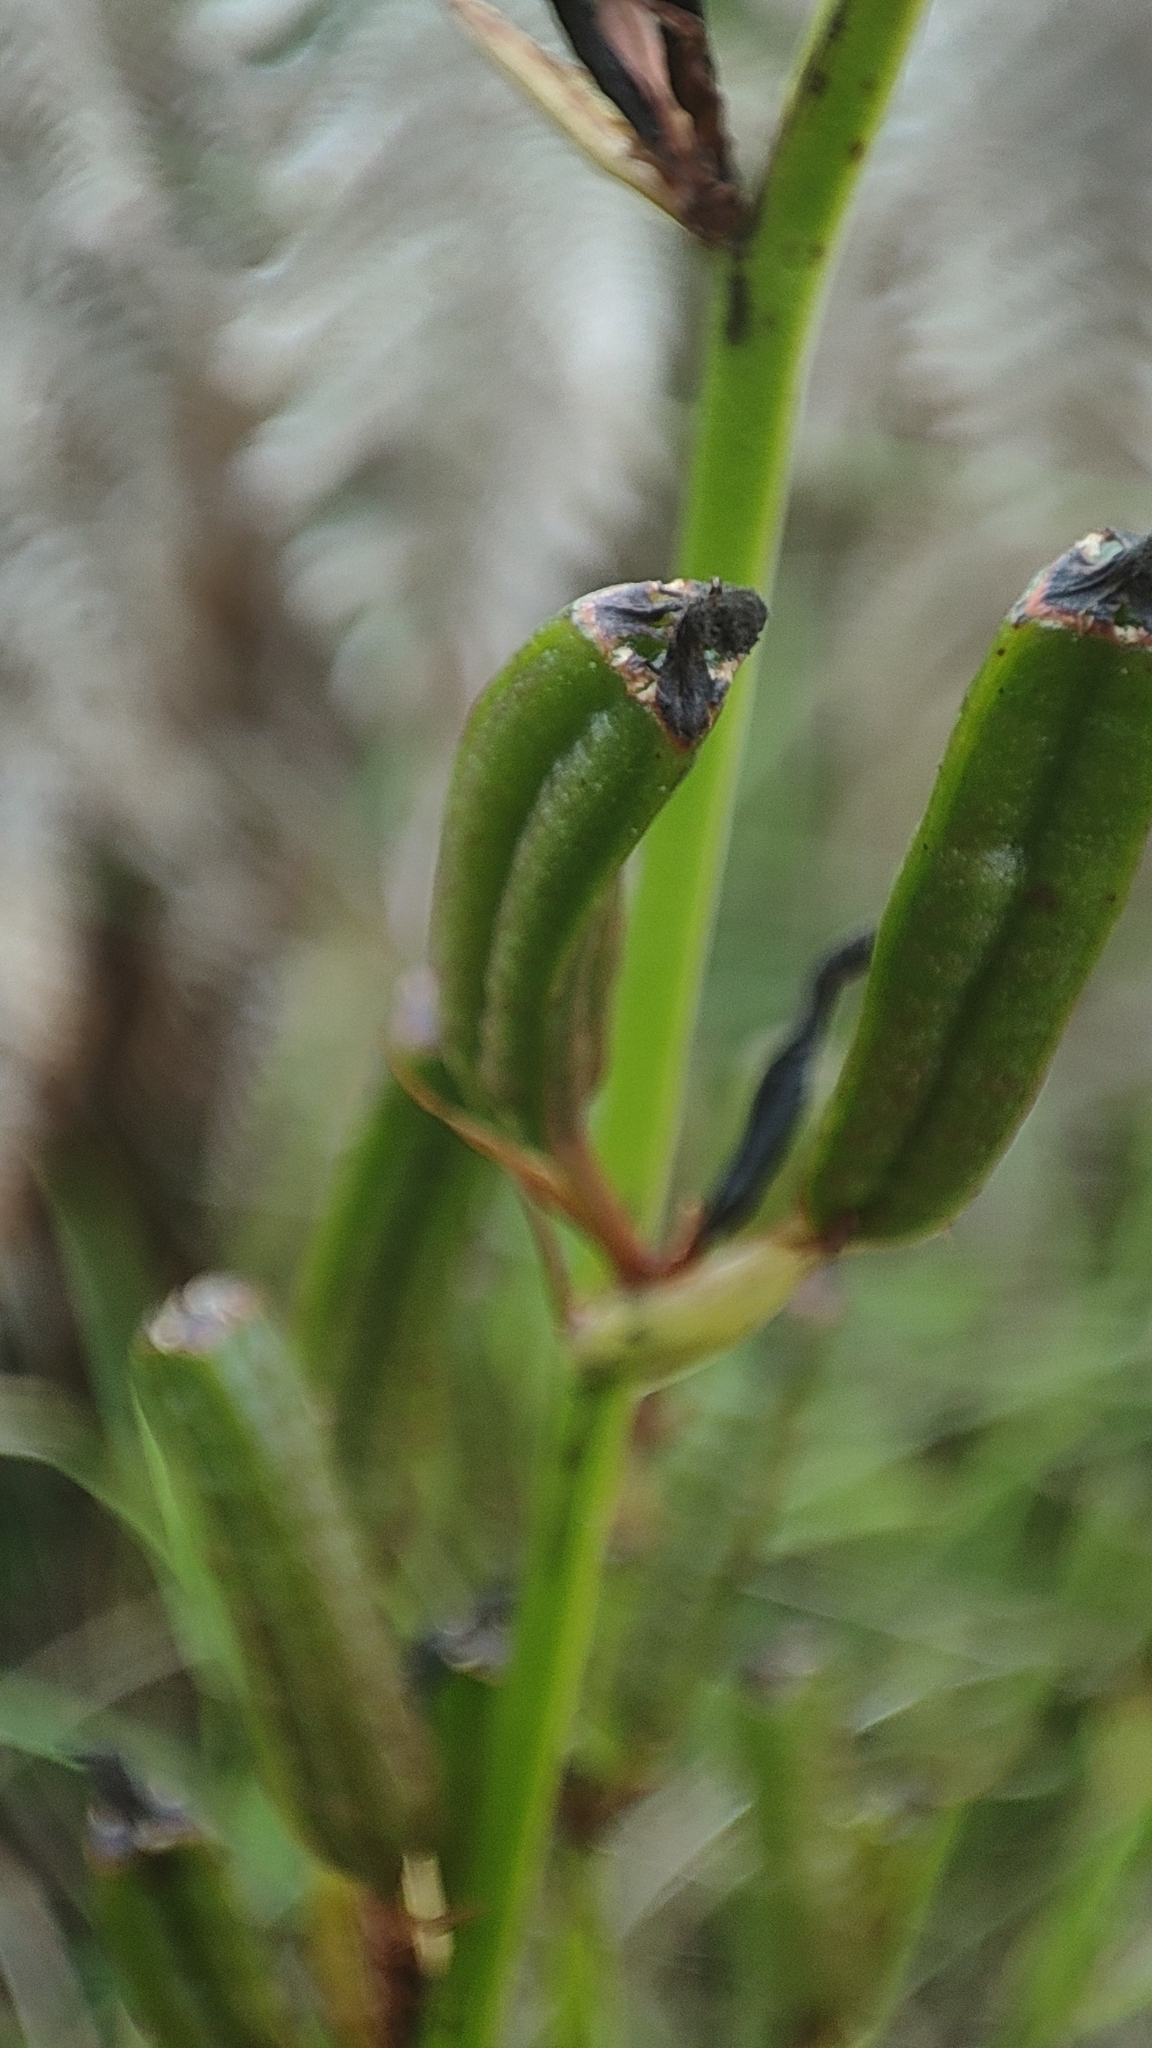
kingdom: Plantae
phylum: Tracheophyta
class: Liliopsida
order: Asparagales
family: Iridaceae
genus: Aristea
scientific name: Aristea ecklonii
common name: Blue corn-lily
